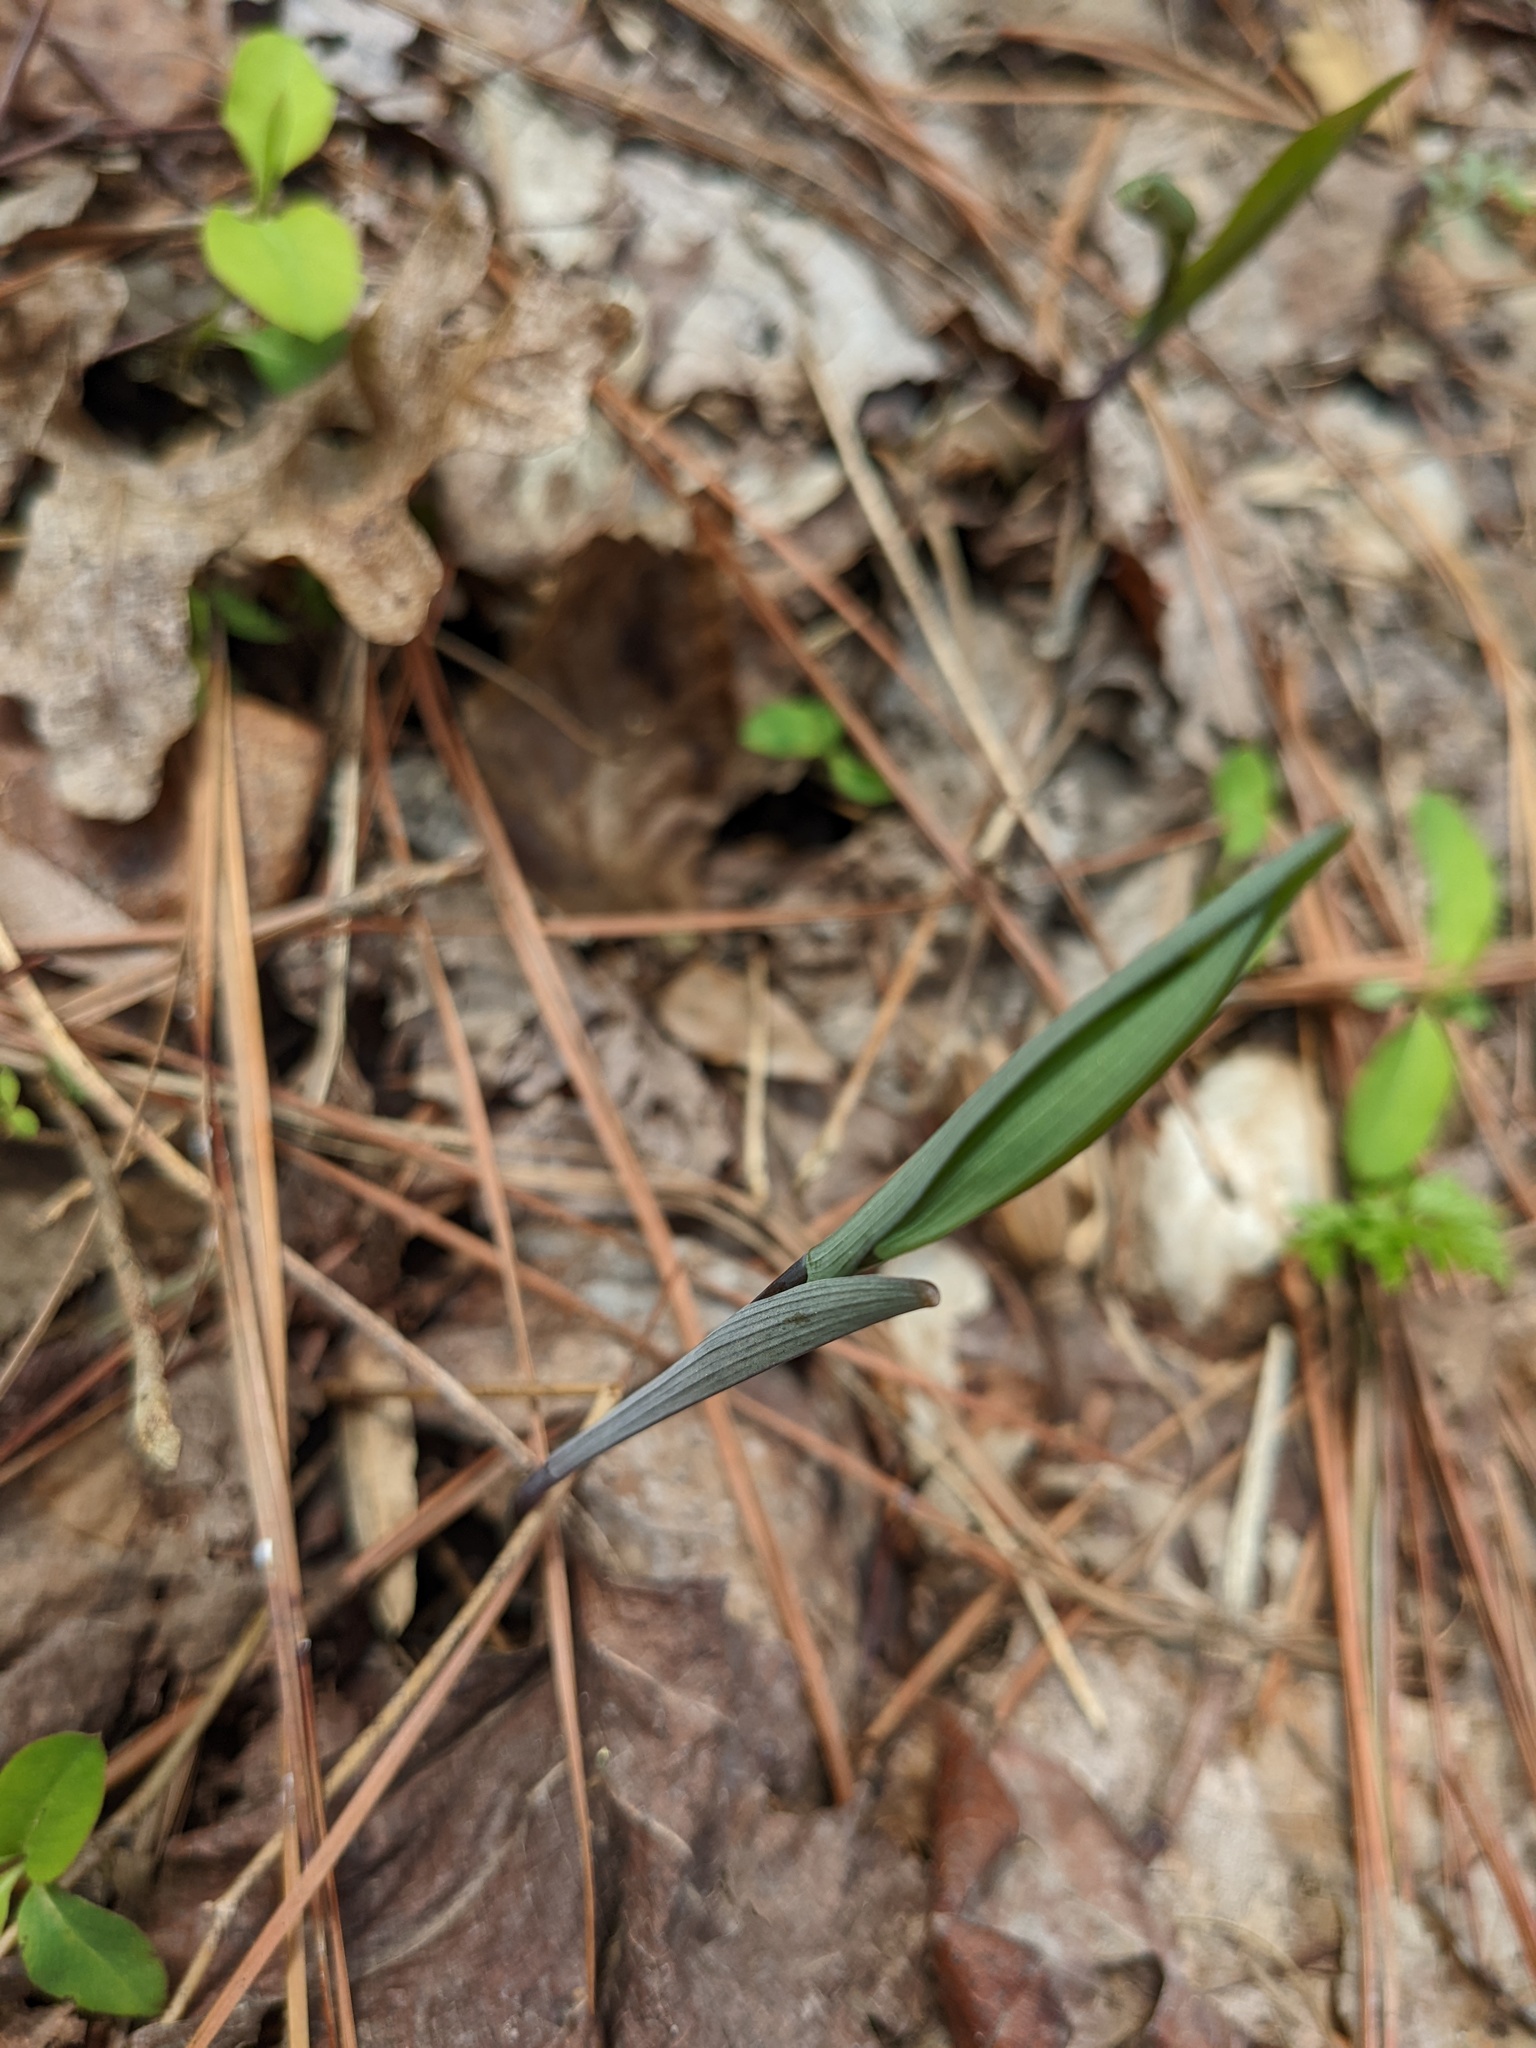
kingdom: Plantae
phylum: Tracheophyta
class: Liliopsida
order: Liliales
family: Colchicaceae
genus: Uvularia
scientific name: Uvularia perfoliata
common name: Perfoliate bellwort
